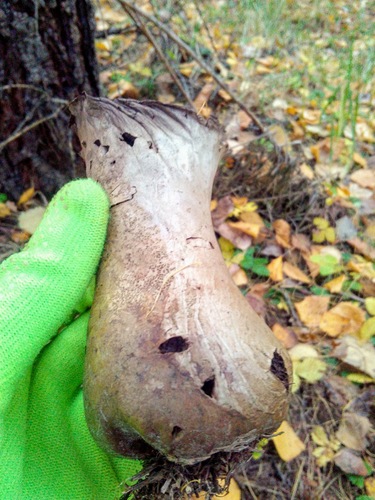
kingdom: Fungi
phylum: Basidiomycota
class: Agaricomycetes
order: Agaricales
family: Lycoperdaceae
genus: Lycoperdon
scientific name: Lycoperdon excipuliforme
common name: Pestle puffball
